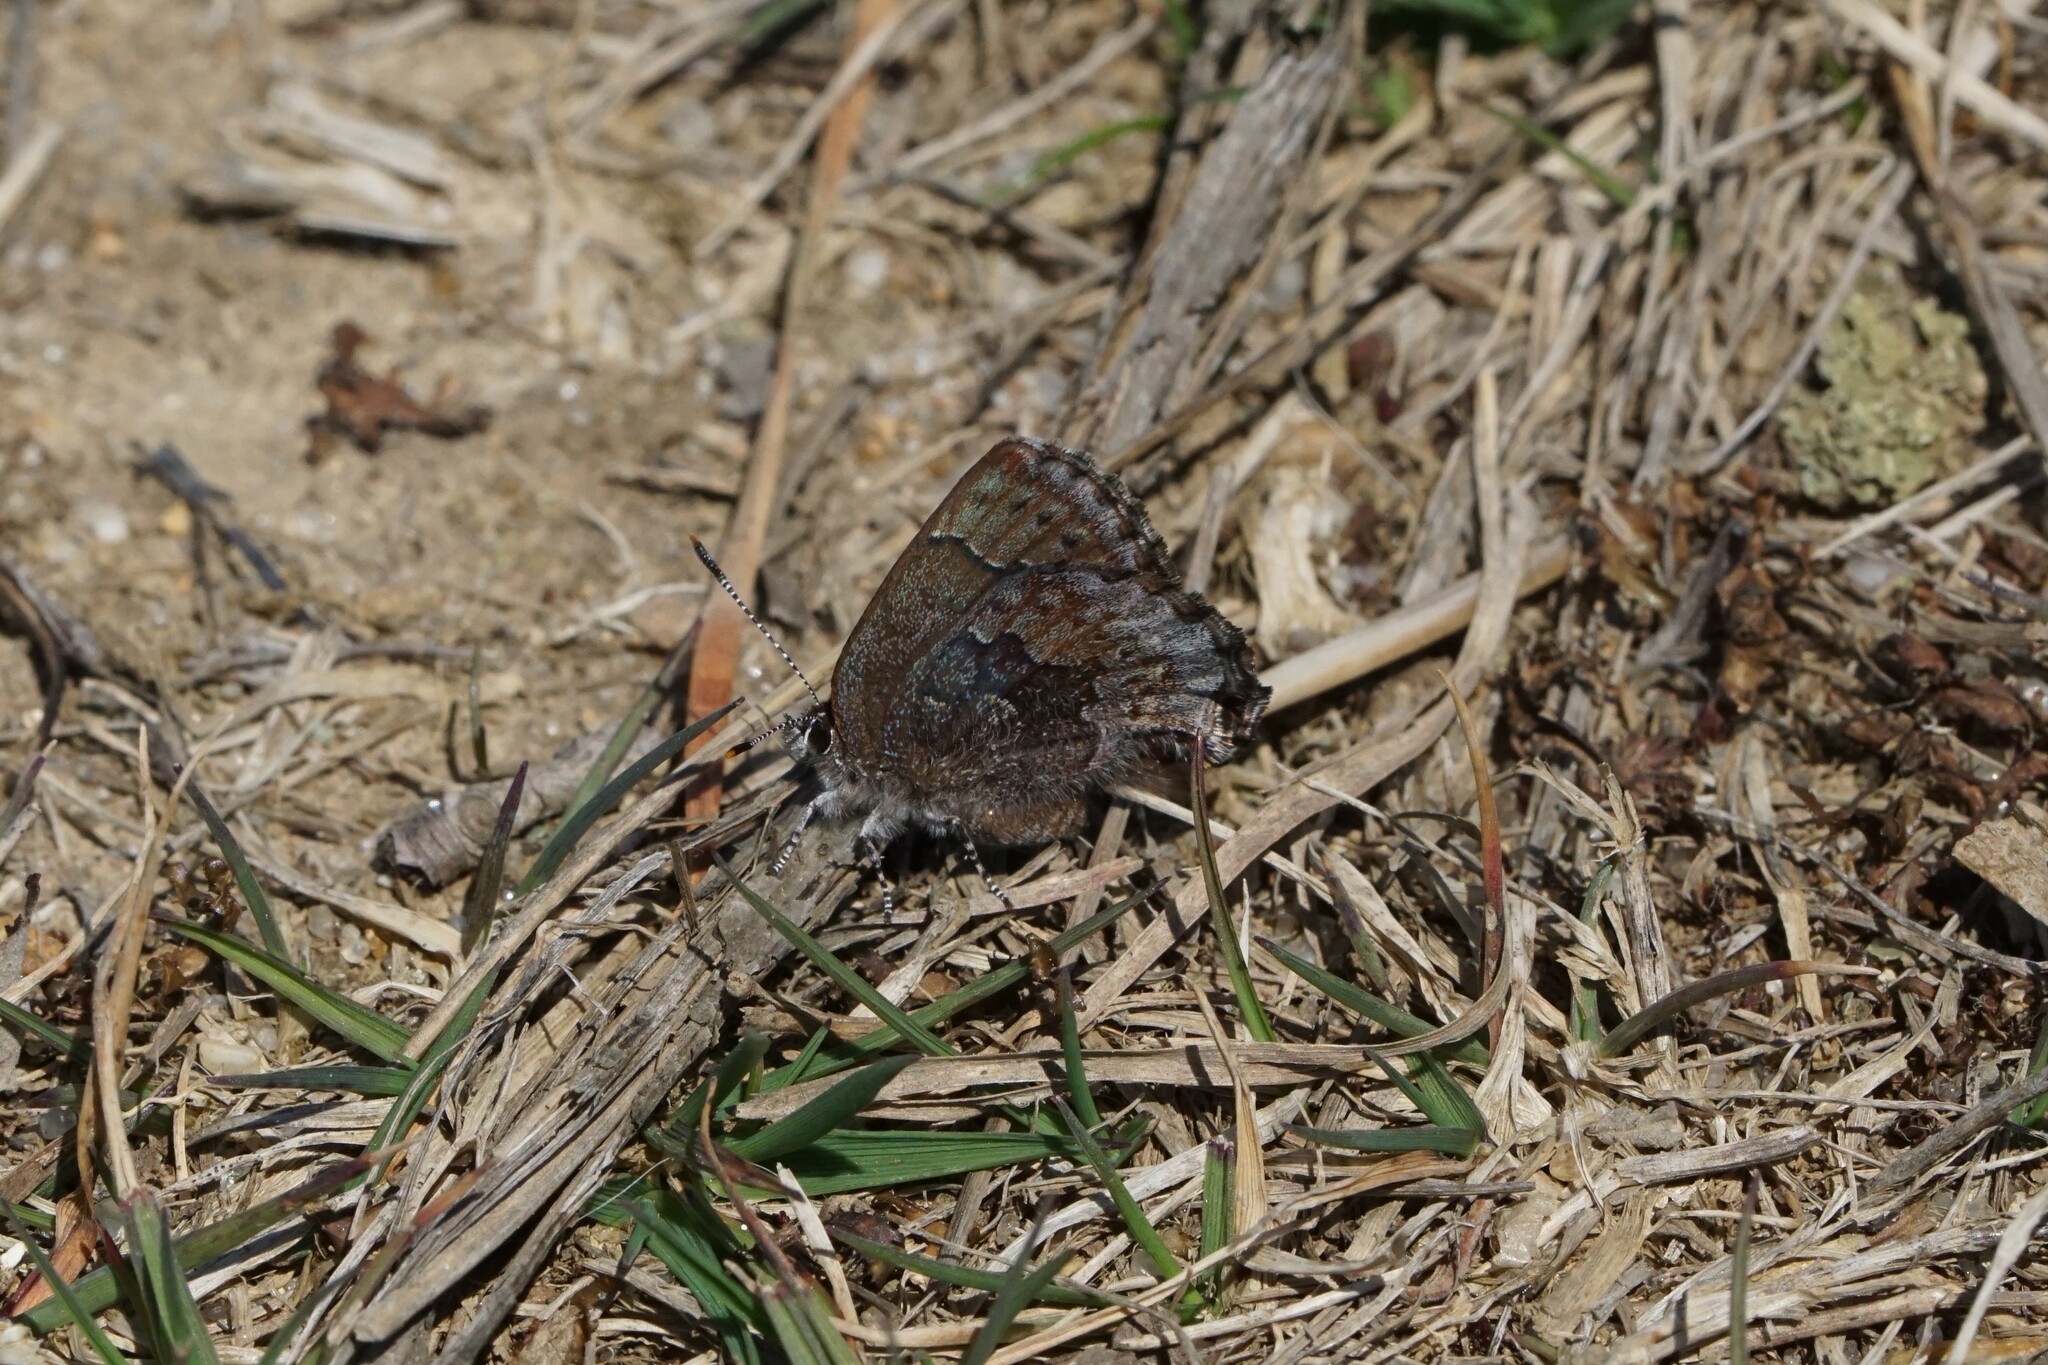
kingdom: Animalia
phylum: Arthropoda
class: Insecta
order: Lepidoptera
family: Lycaenidae
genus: Callophrys
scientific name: Callophrys polios
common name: Hoary elfin
